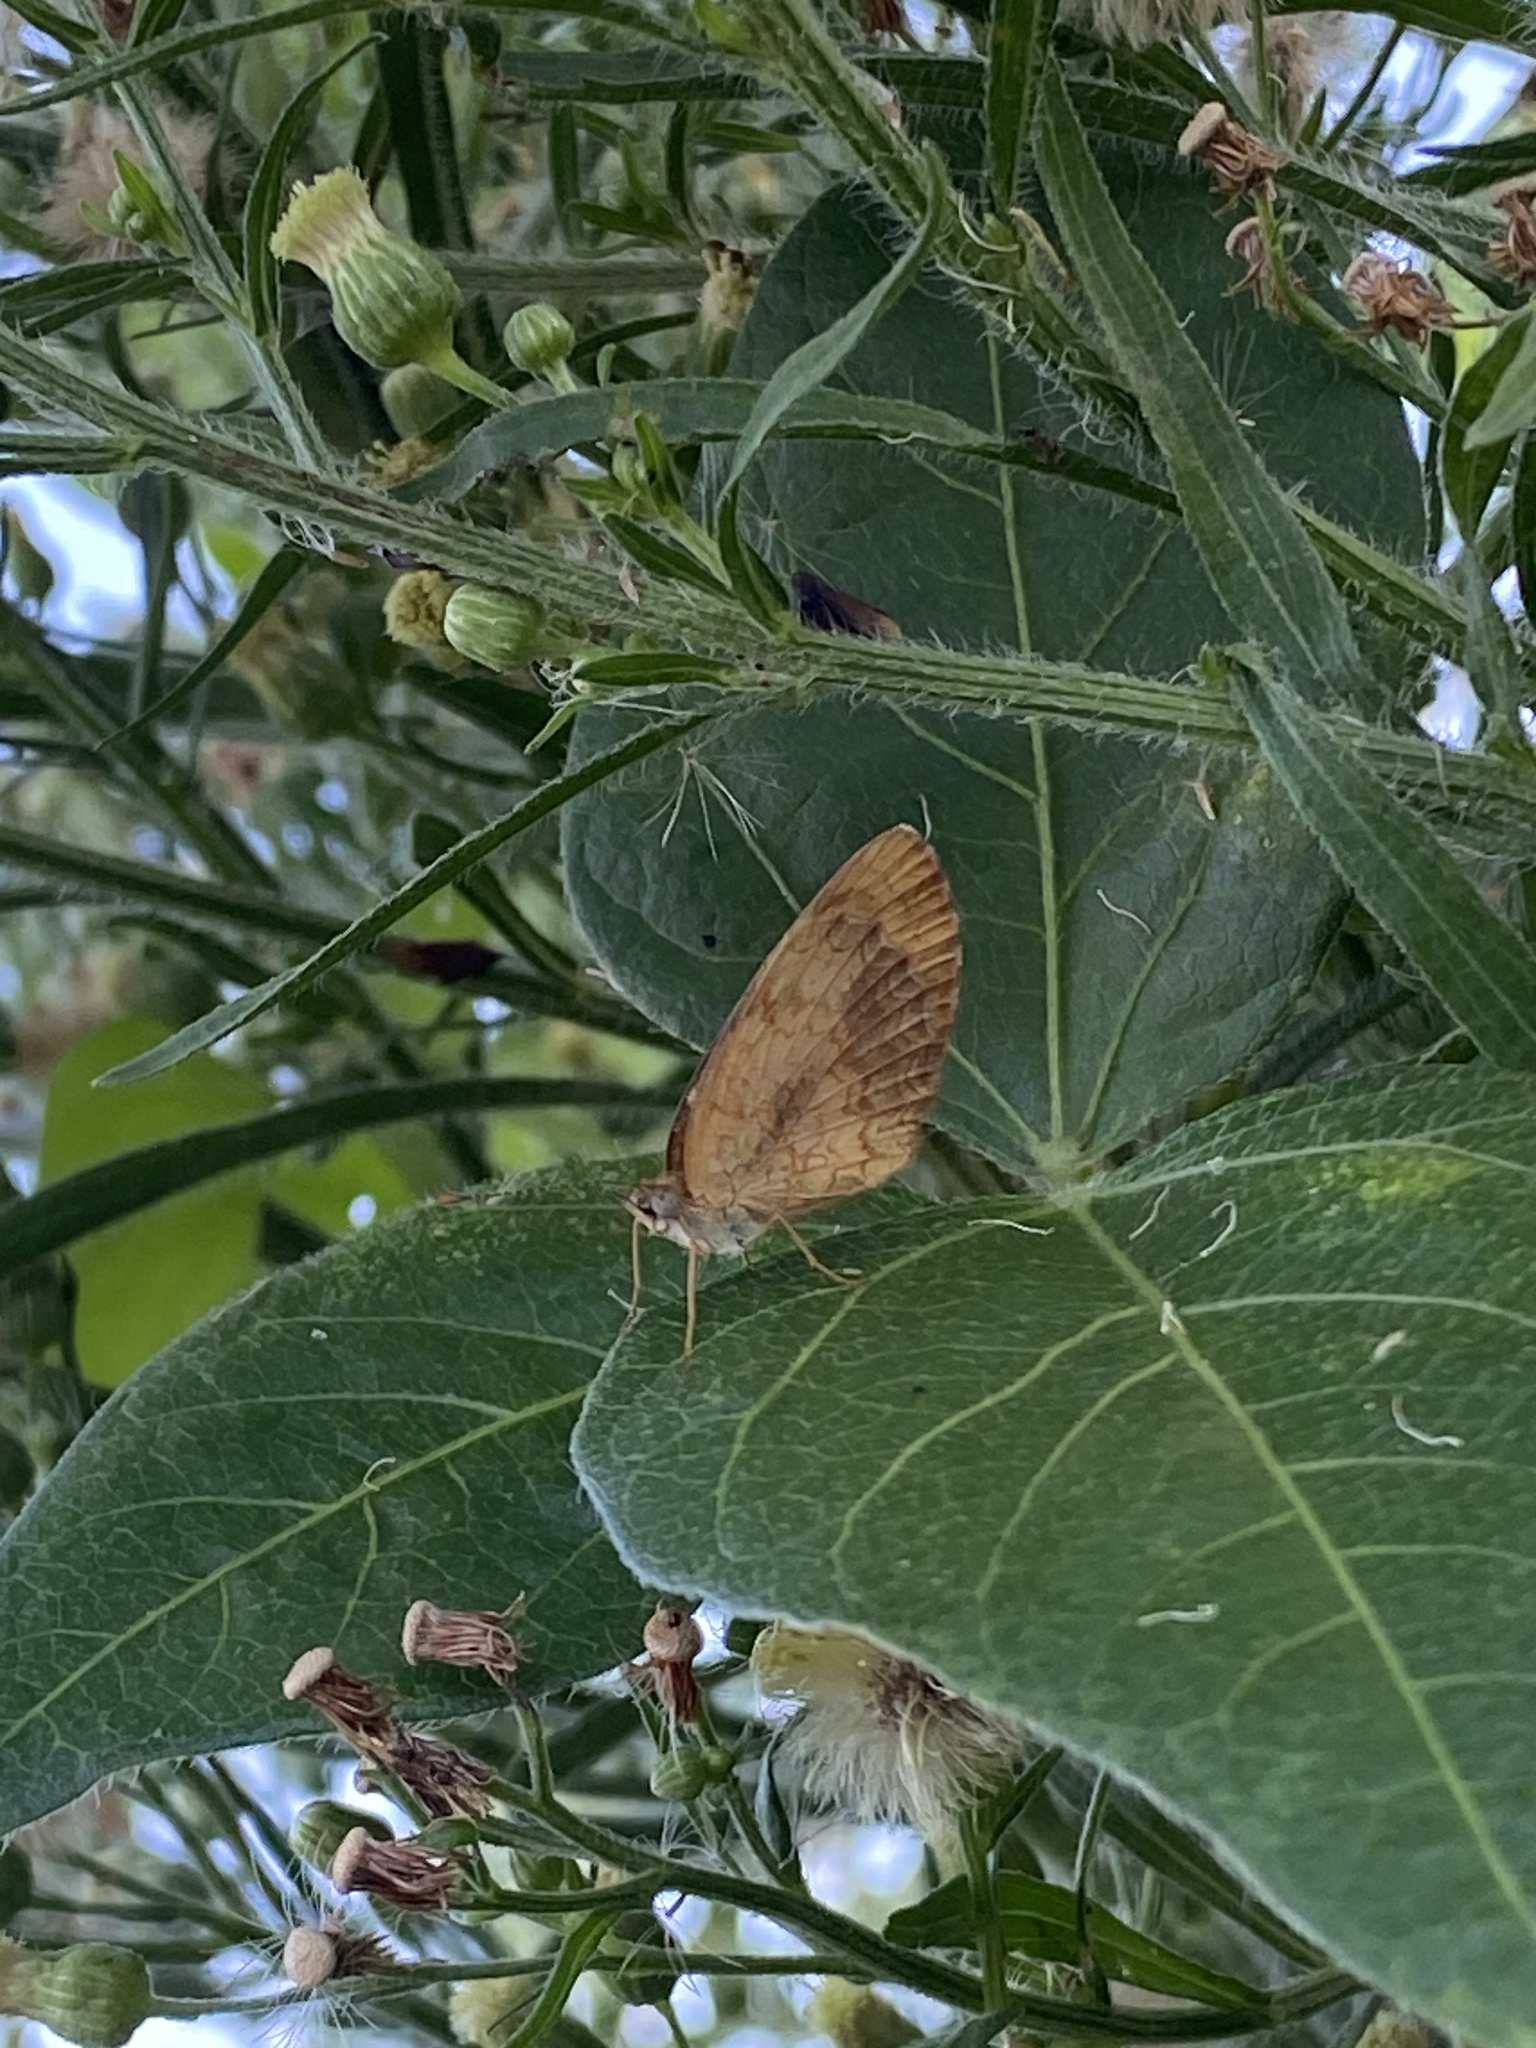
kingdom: Animalia
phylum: Arthropoda
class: Insecta
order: Lepidoptera
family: Nymphalidae
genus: Tegosa
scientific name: Tegosa claudina
